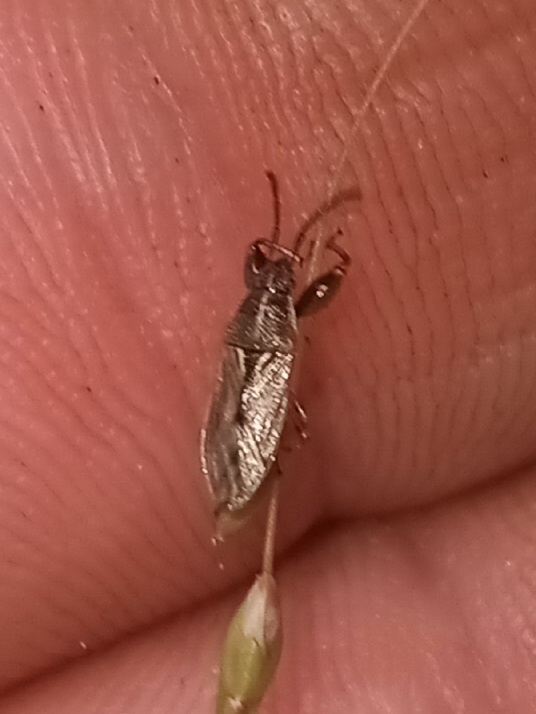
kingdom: Animalia
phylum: Arthropoda
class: Insecta
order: Hemiptera
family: Pachygronthidae
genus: Oedancala
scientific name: Oedancala dorsalis
